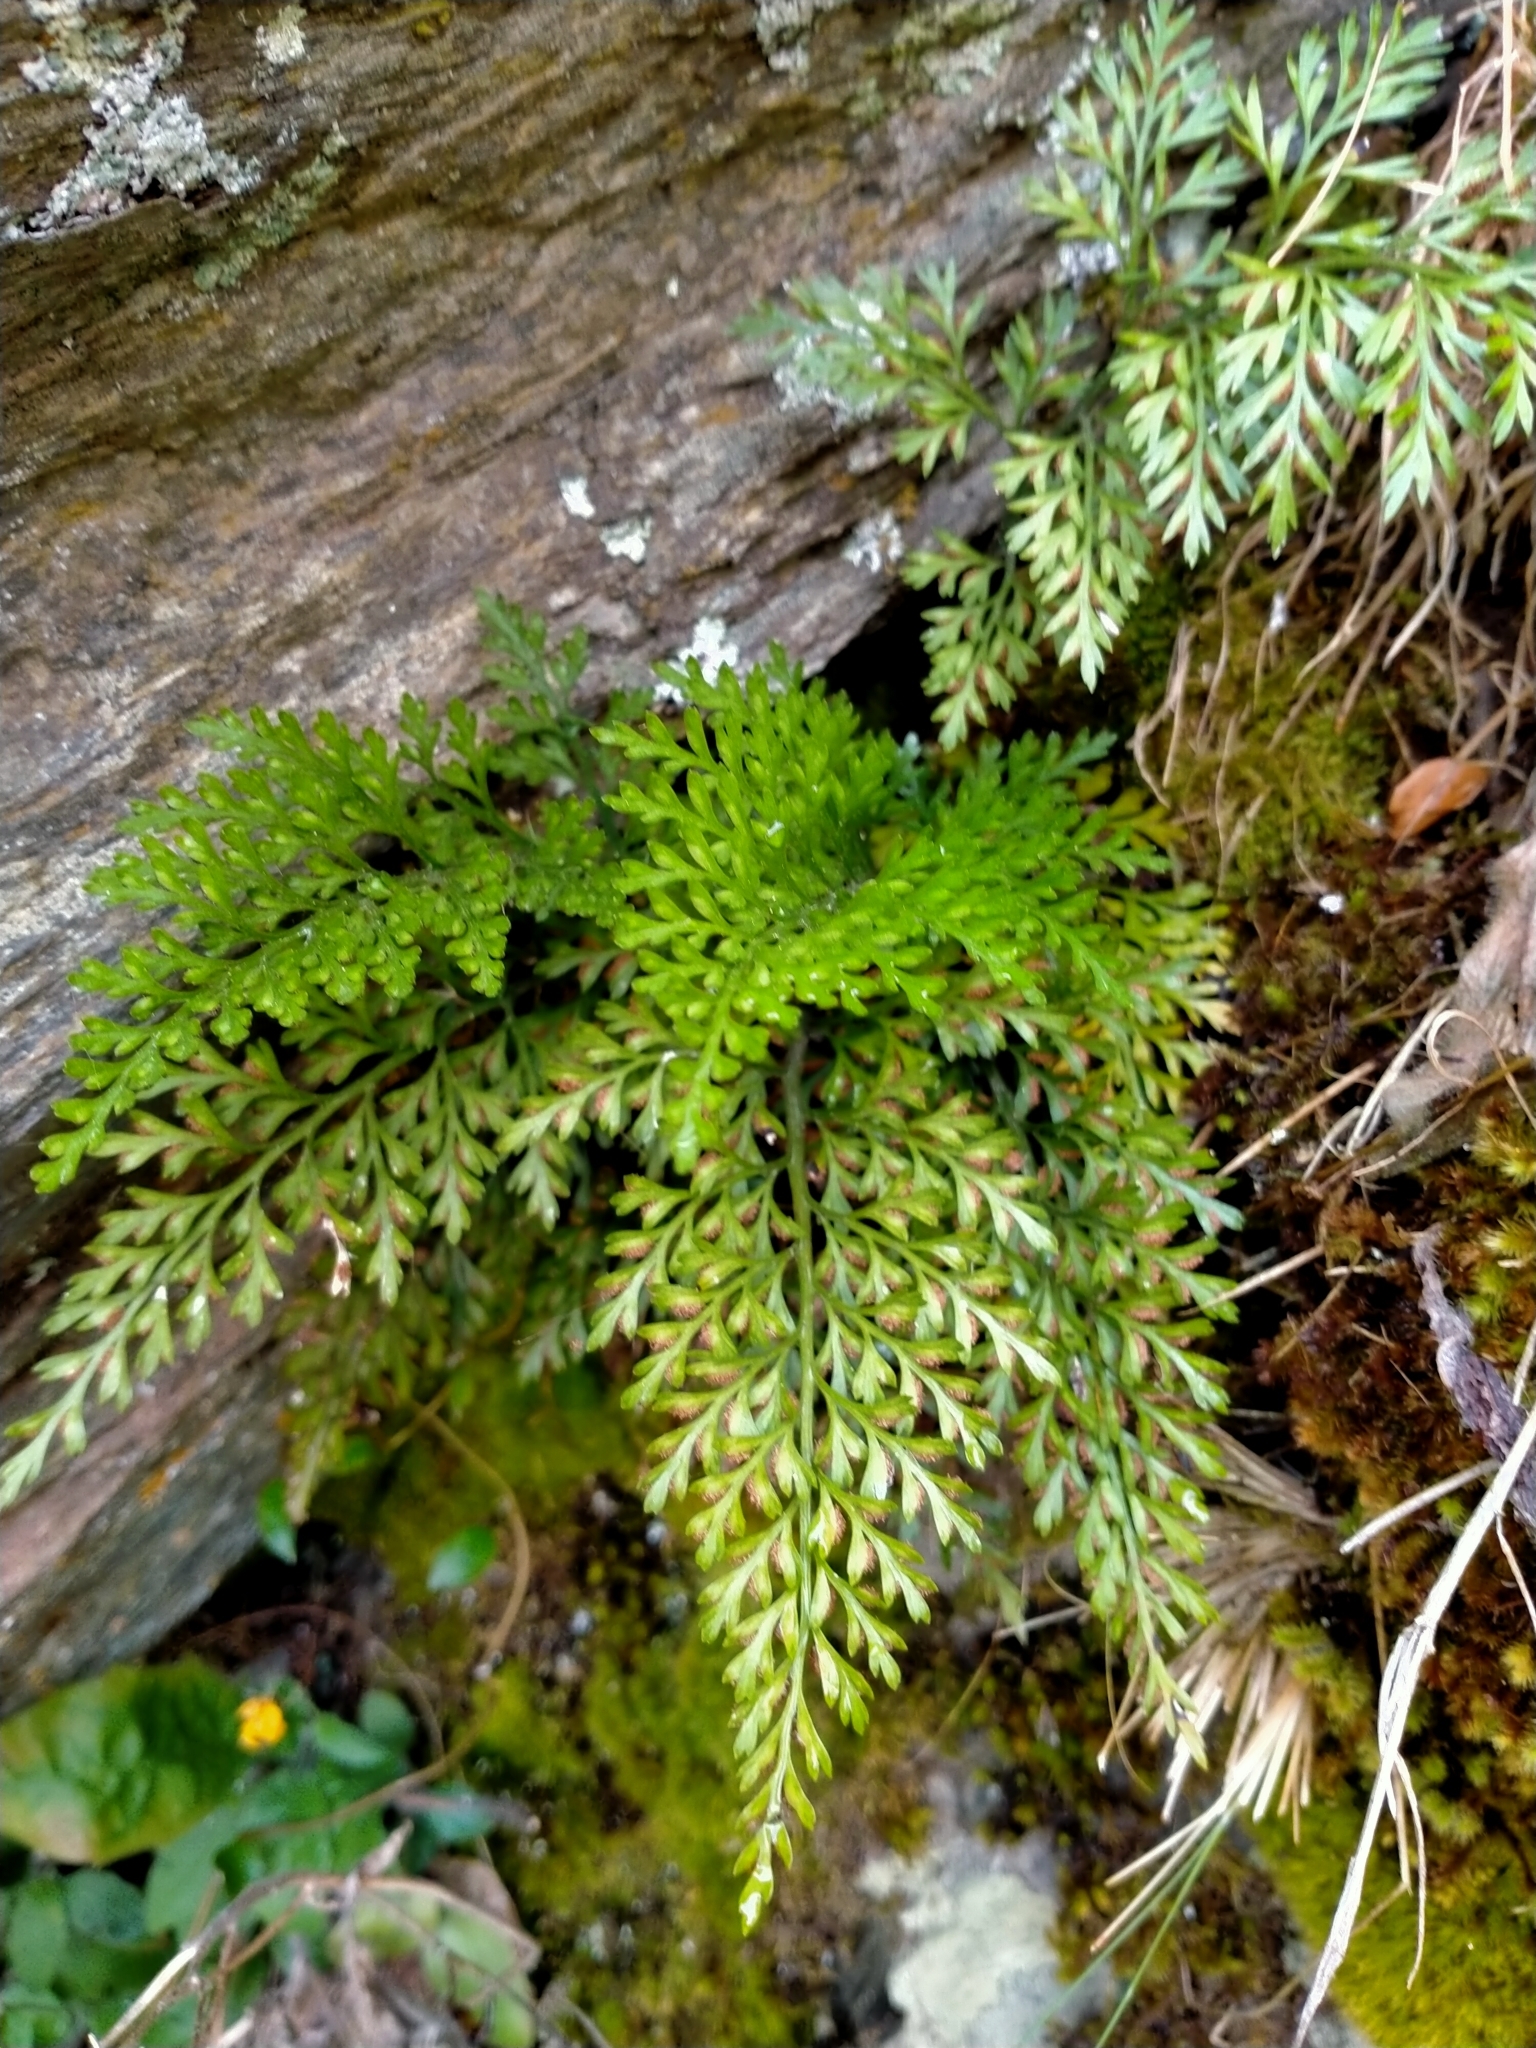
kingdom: Plantae
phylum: Tracheophyta
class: Polypodiopsida
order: Polypodiales
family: Aspleniaceae
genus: Asplenium
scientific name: Asplenium richardii
